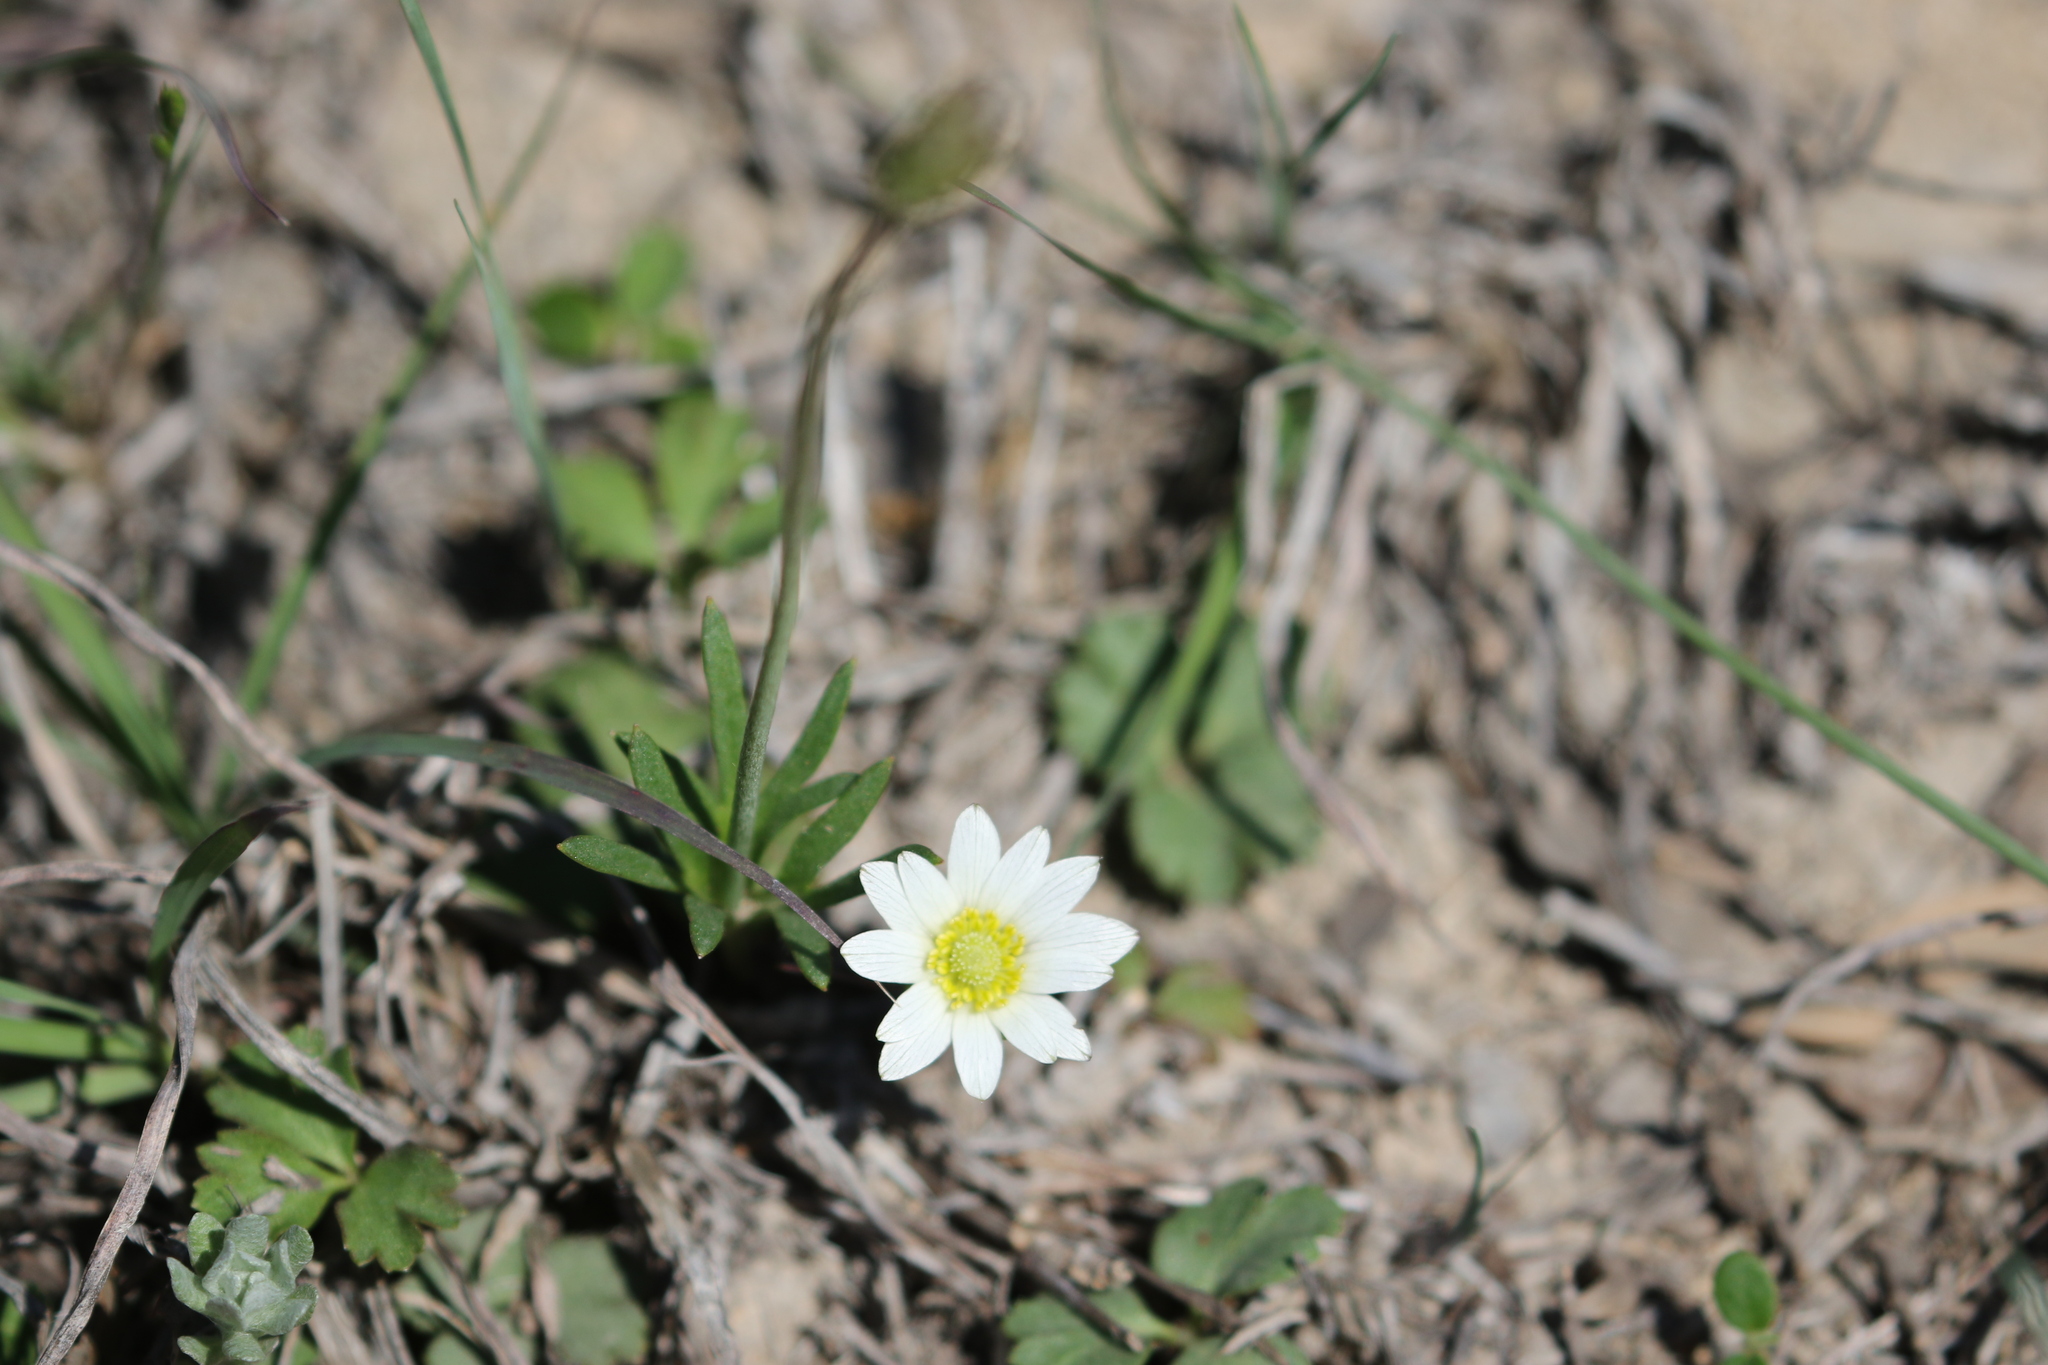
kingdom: Plantae
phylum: Tracheophyta
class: Magnoliopsida
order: Ranunculales
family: Ranunculaceae
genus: Anemone
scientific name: Anemone berlandieri
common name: Ten-petal anemone
